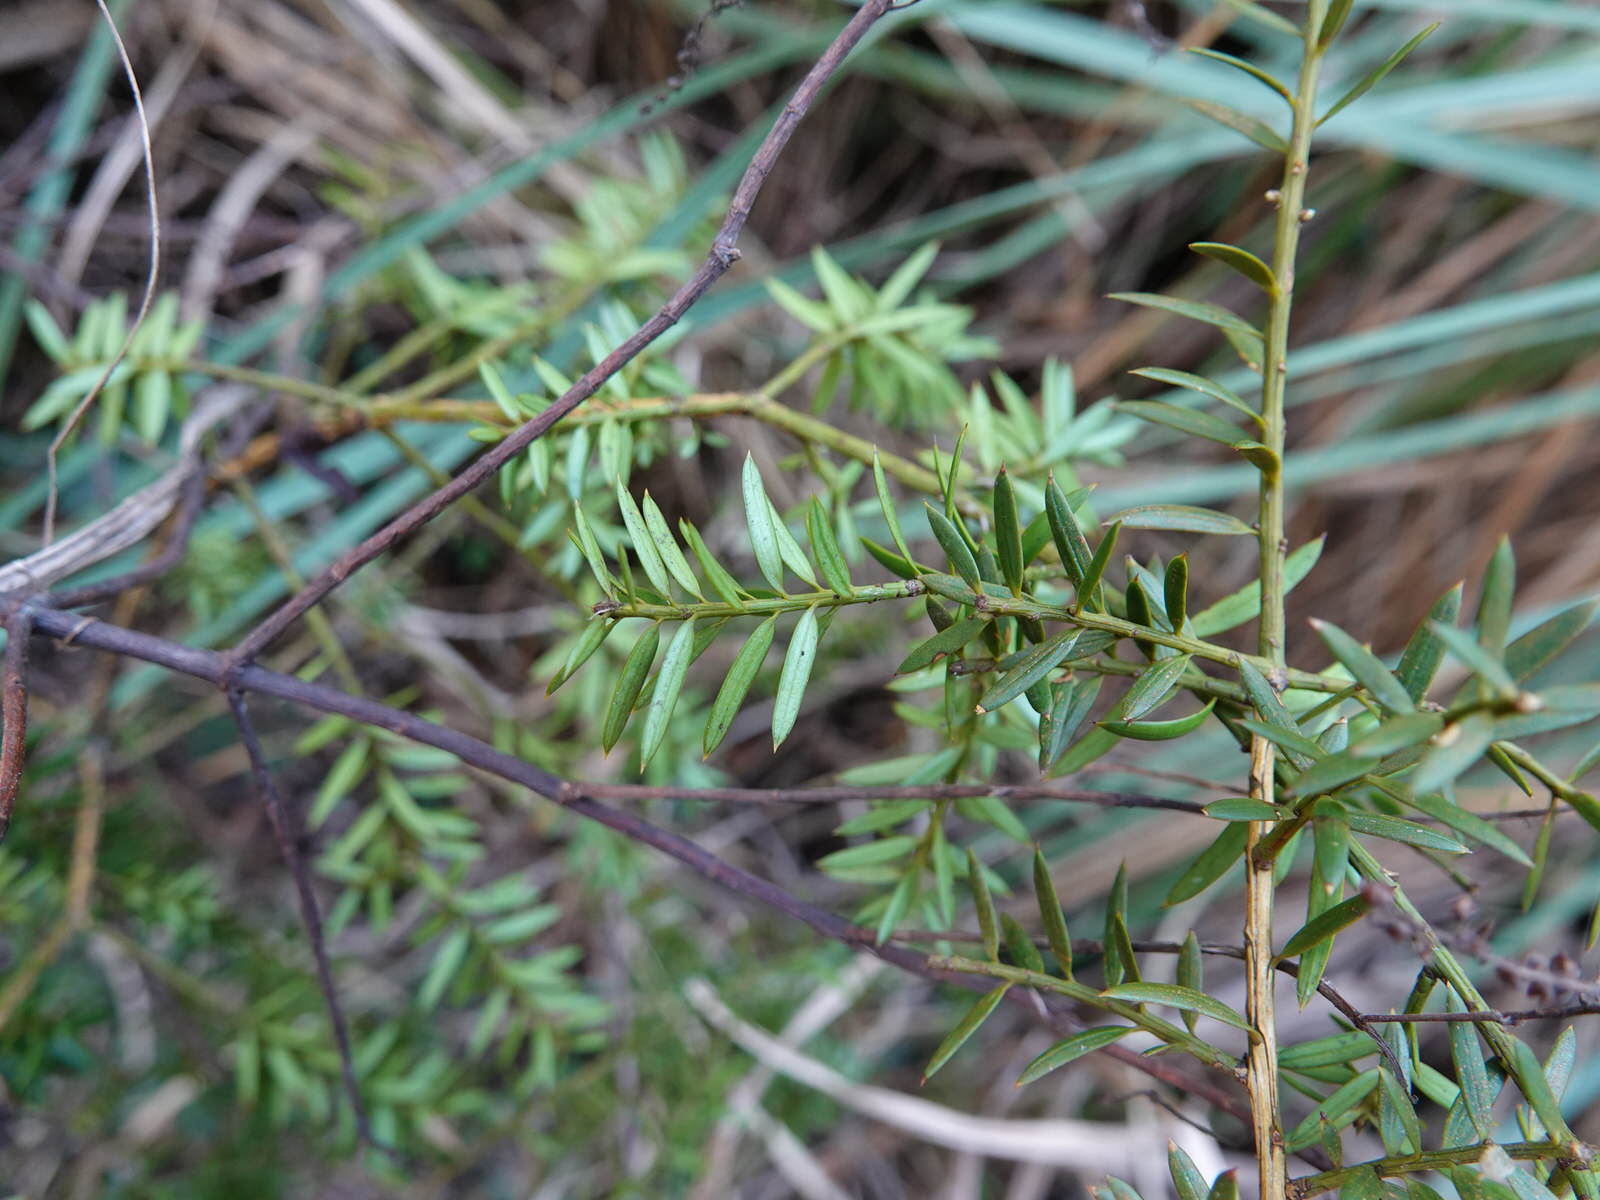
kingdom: Plantae
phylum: Tracheophyta
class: Pinopsida
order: Pinales
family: Podocarpaceae
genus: Podocarpus
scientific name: Podocarpus totara
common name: Totara
